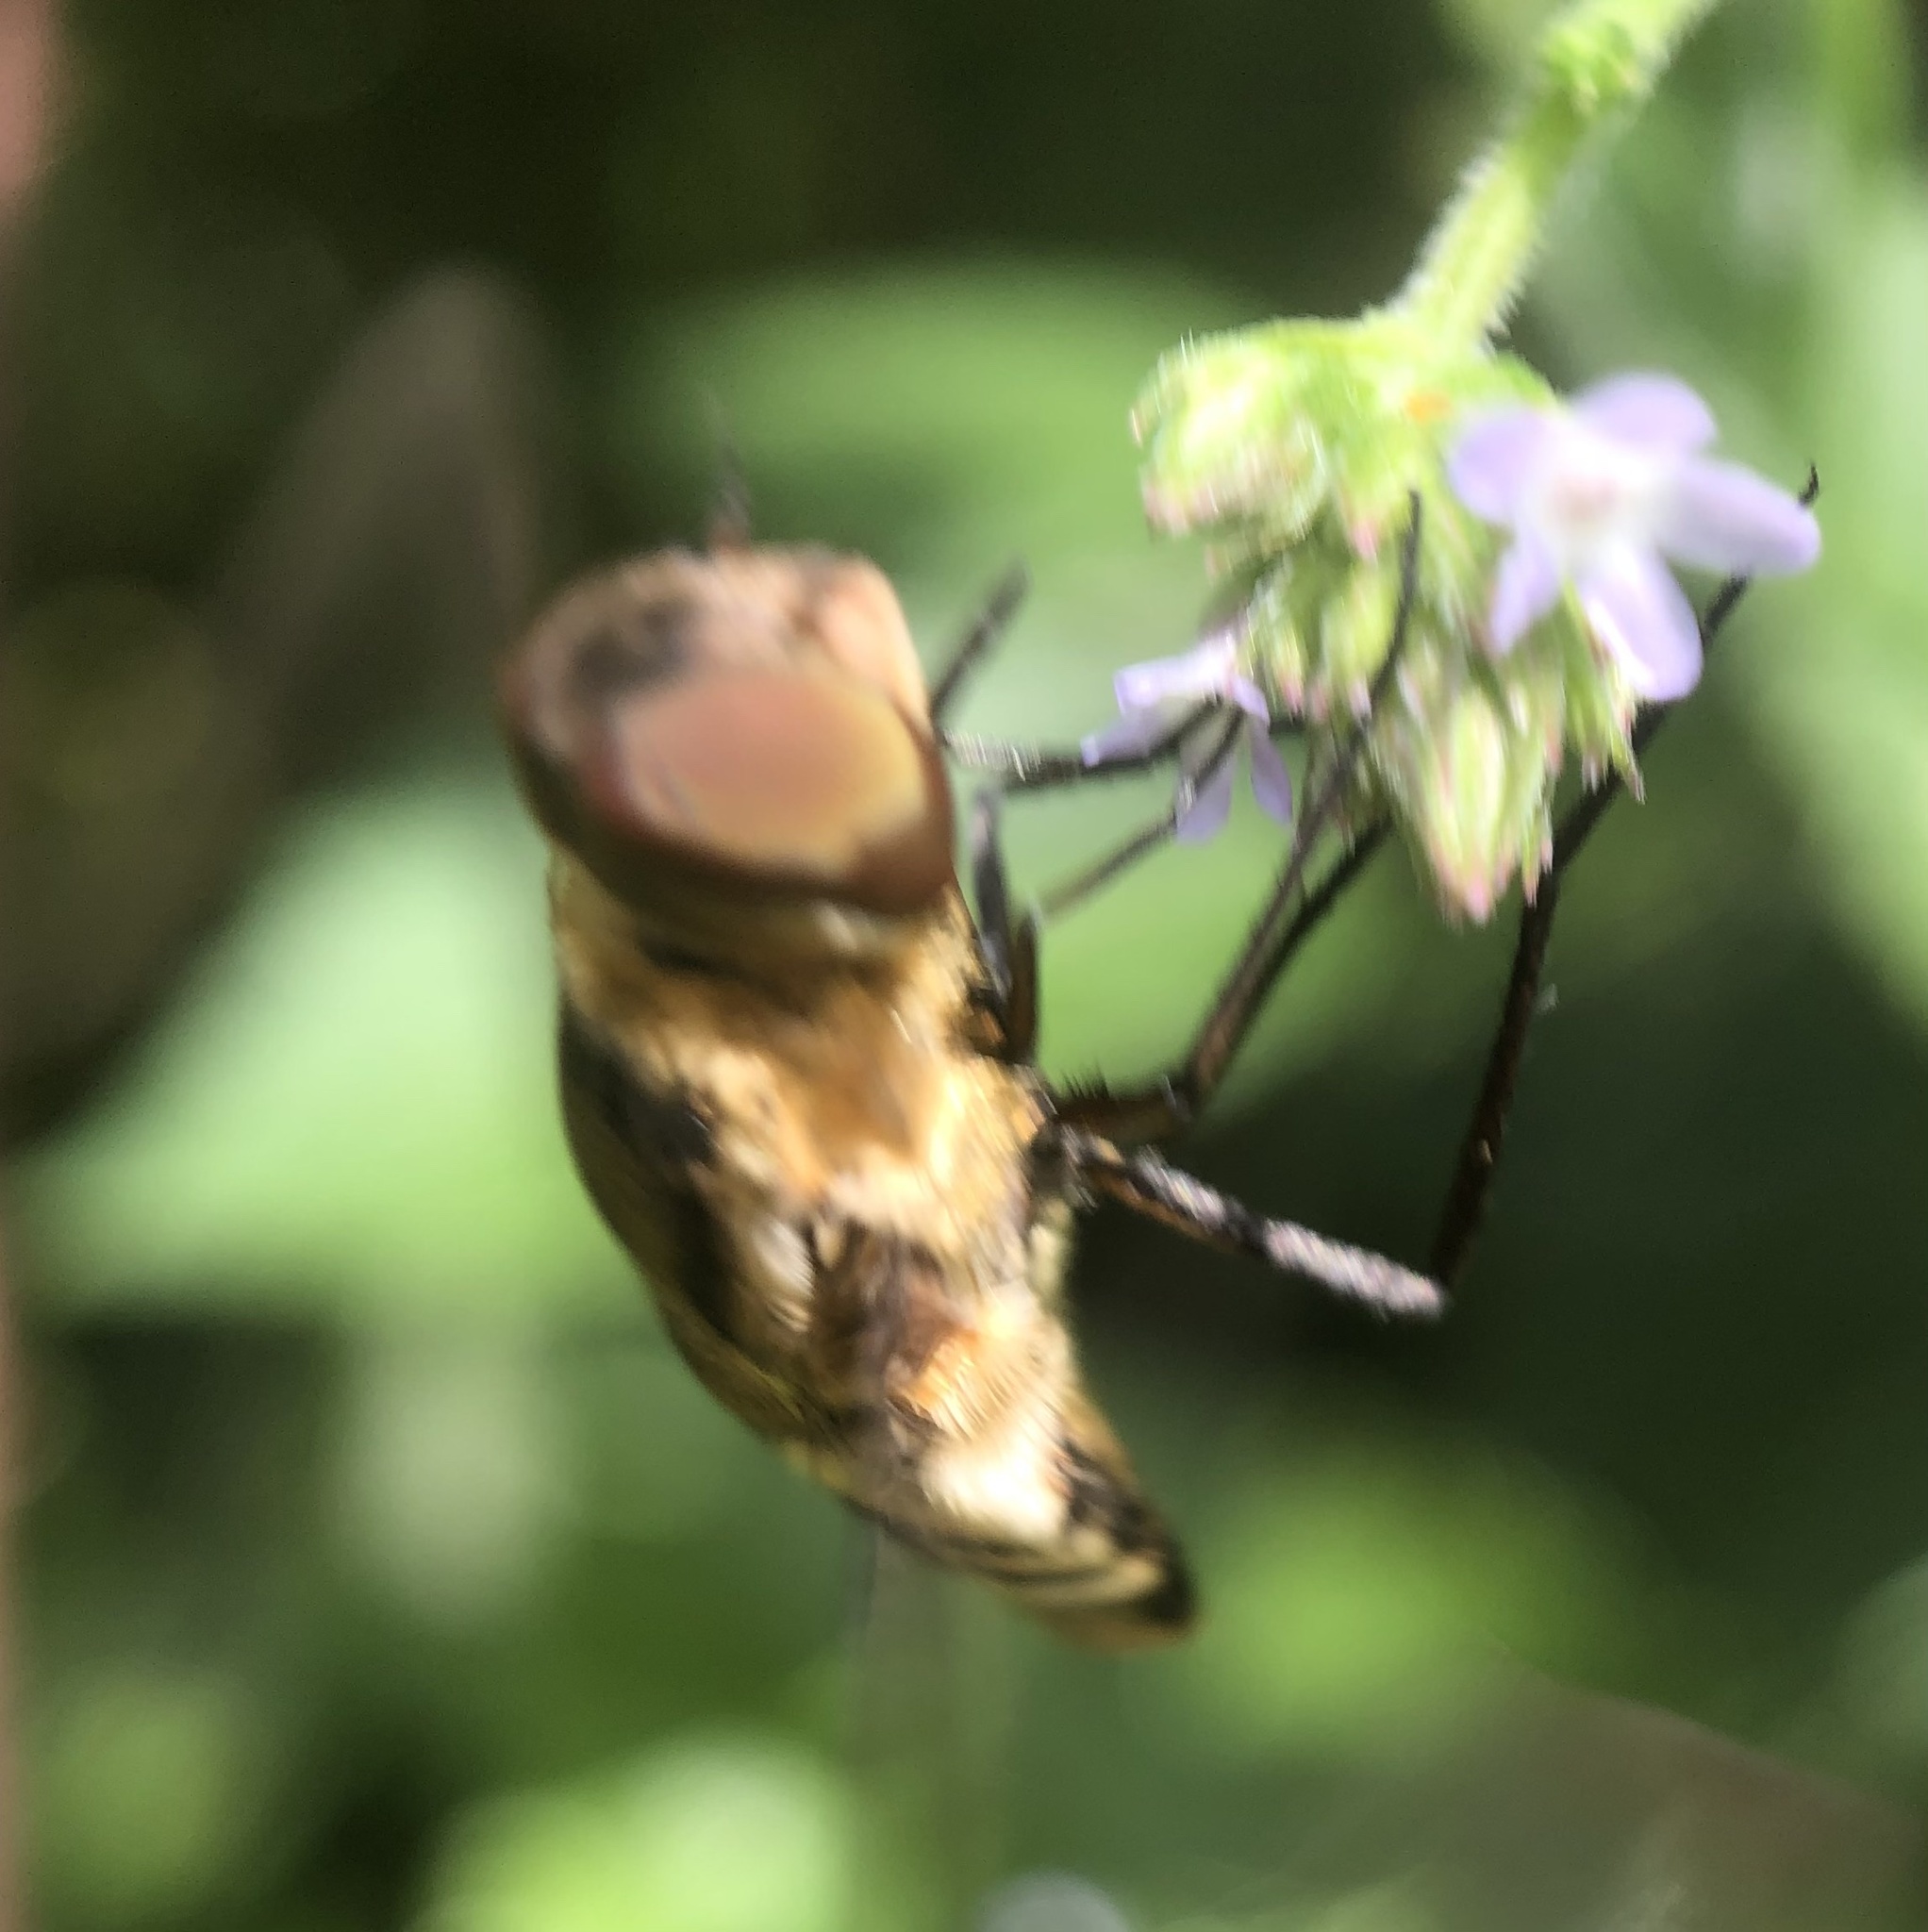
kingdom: Animalia
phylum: Arthropoda
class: Insecta
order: Diptera
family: Bombyliidae
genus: Exoprosopa
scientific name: Exoprosopa brevirostris
